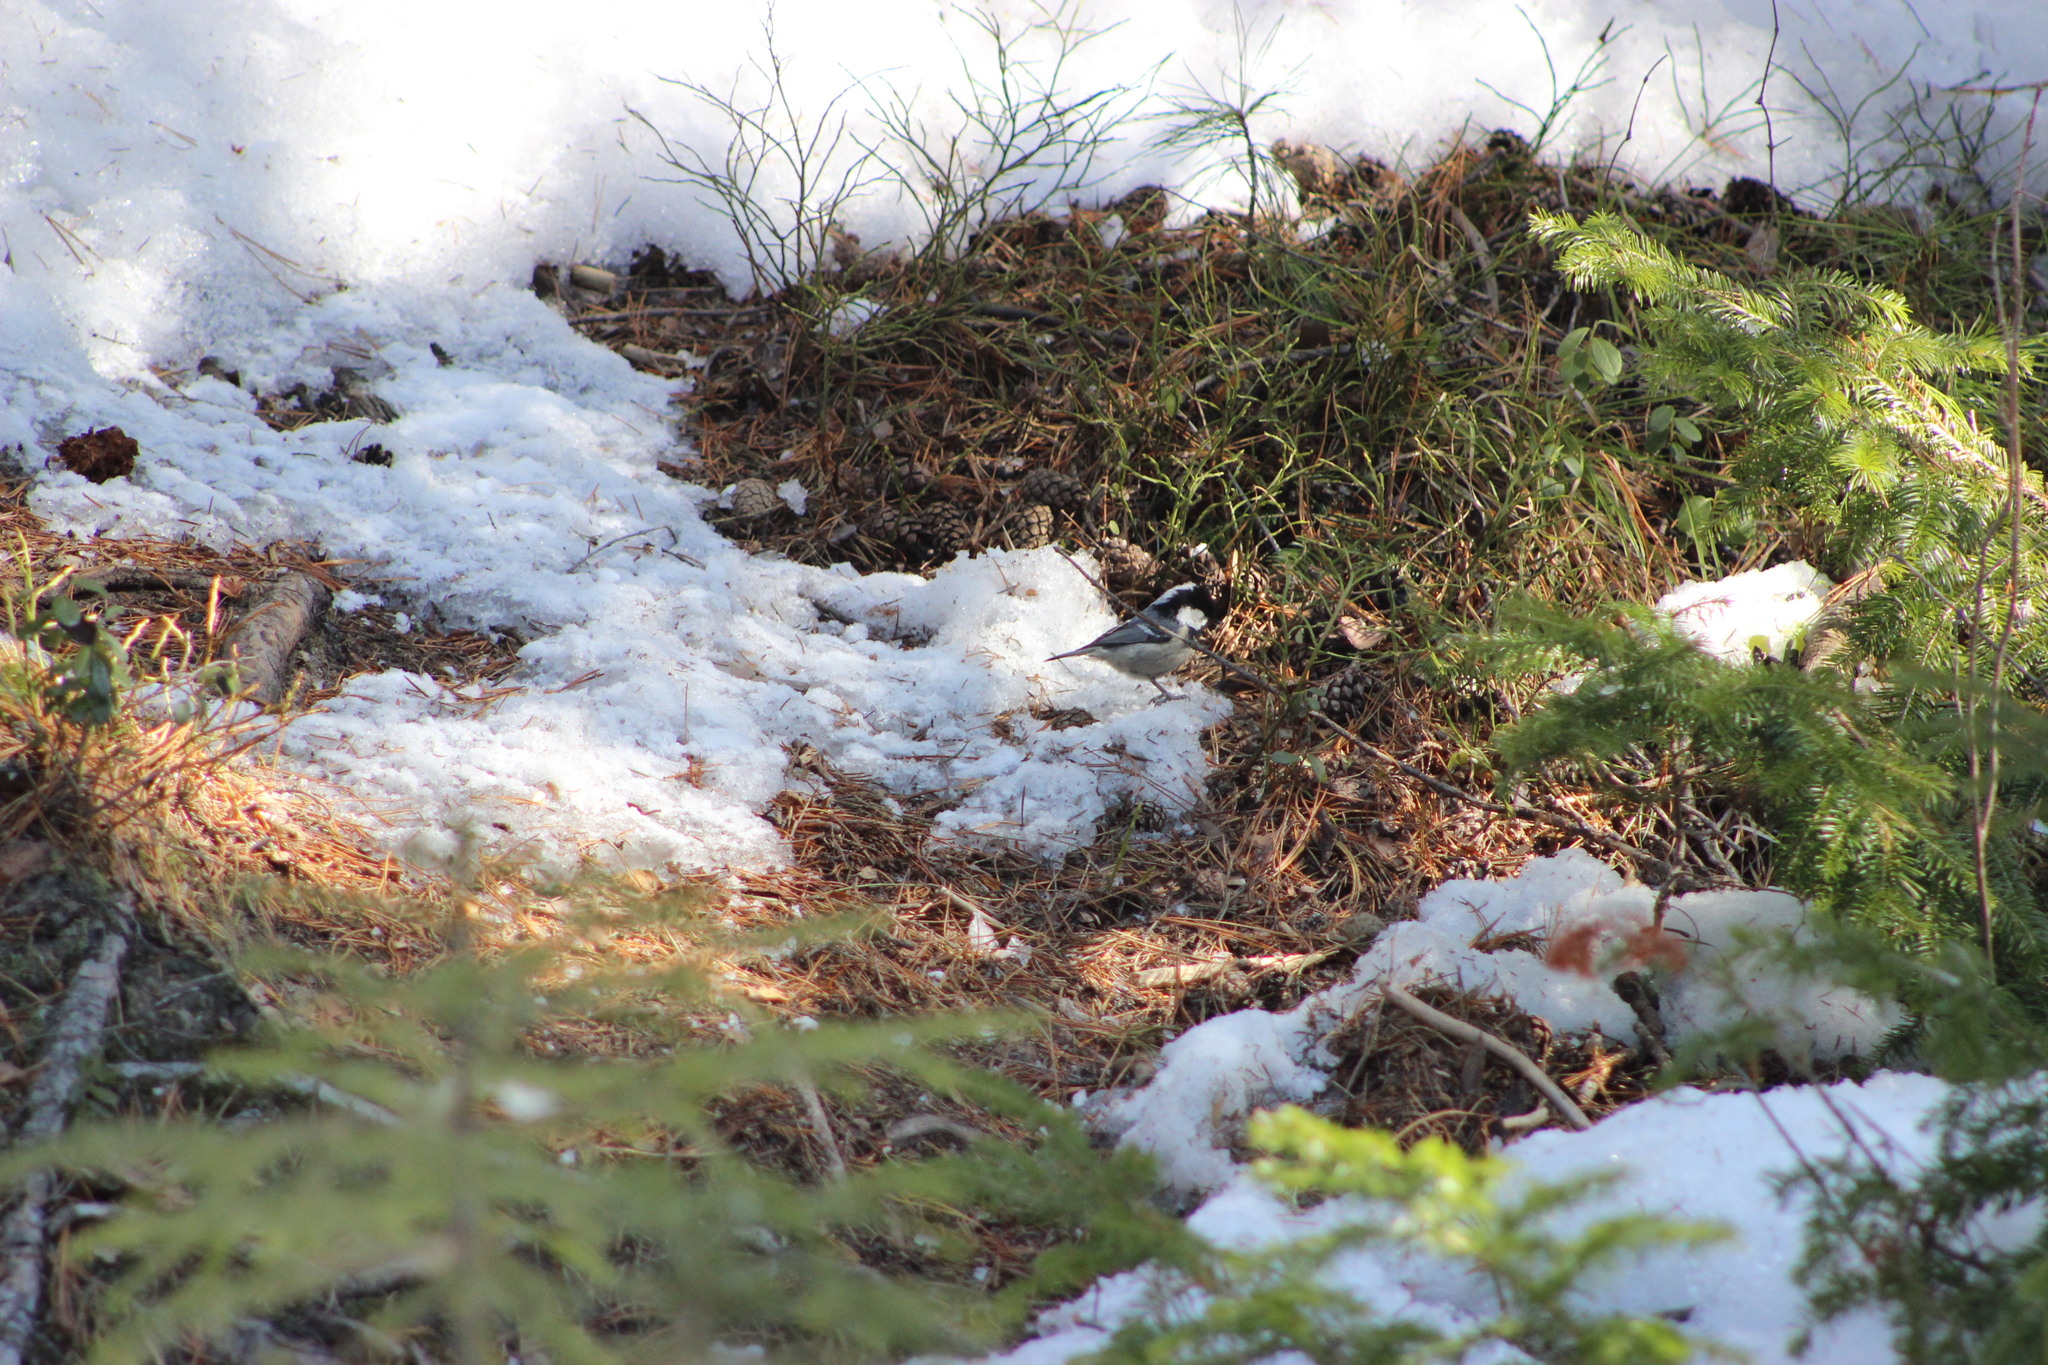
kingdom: Animalia
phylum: Chordata
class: Aves
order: Passeriformes
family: Paridae
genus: Periparus
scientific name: Periparus ater
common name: Coal tit
